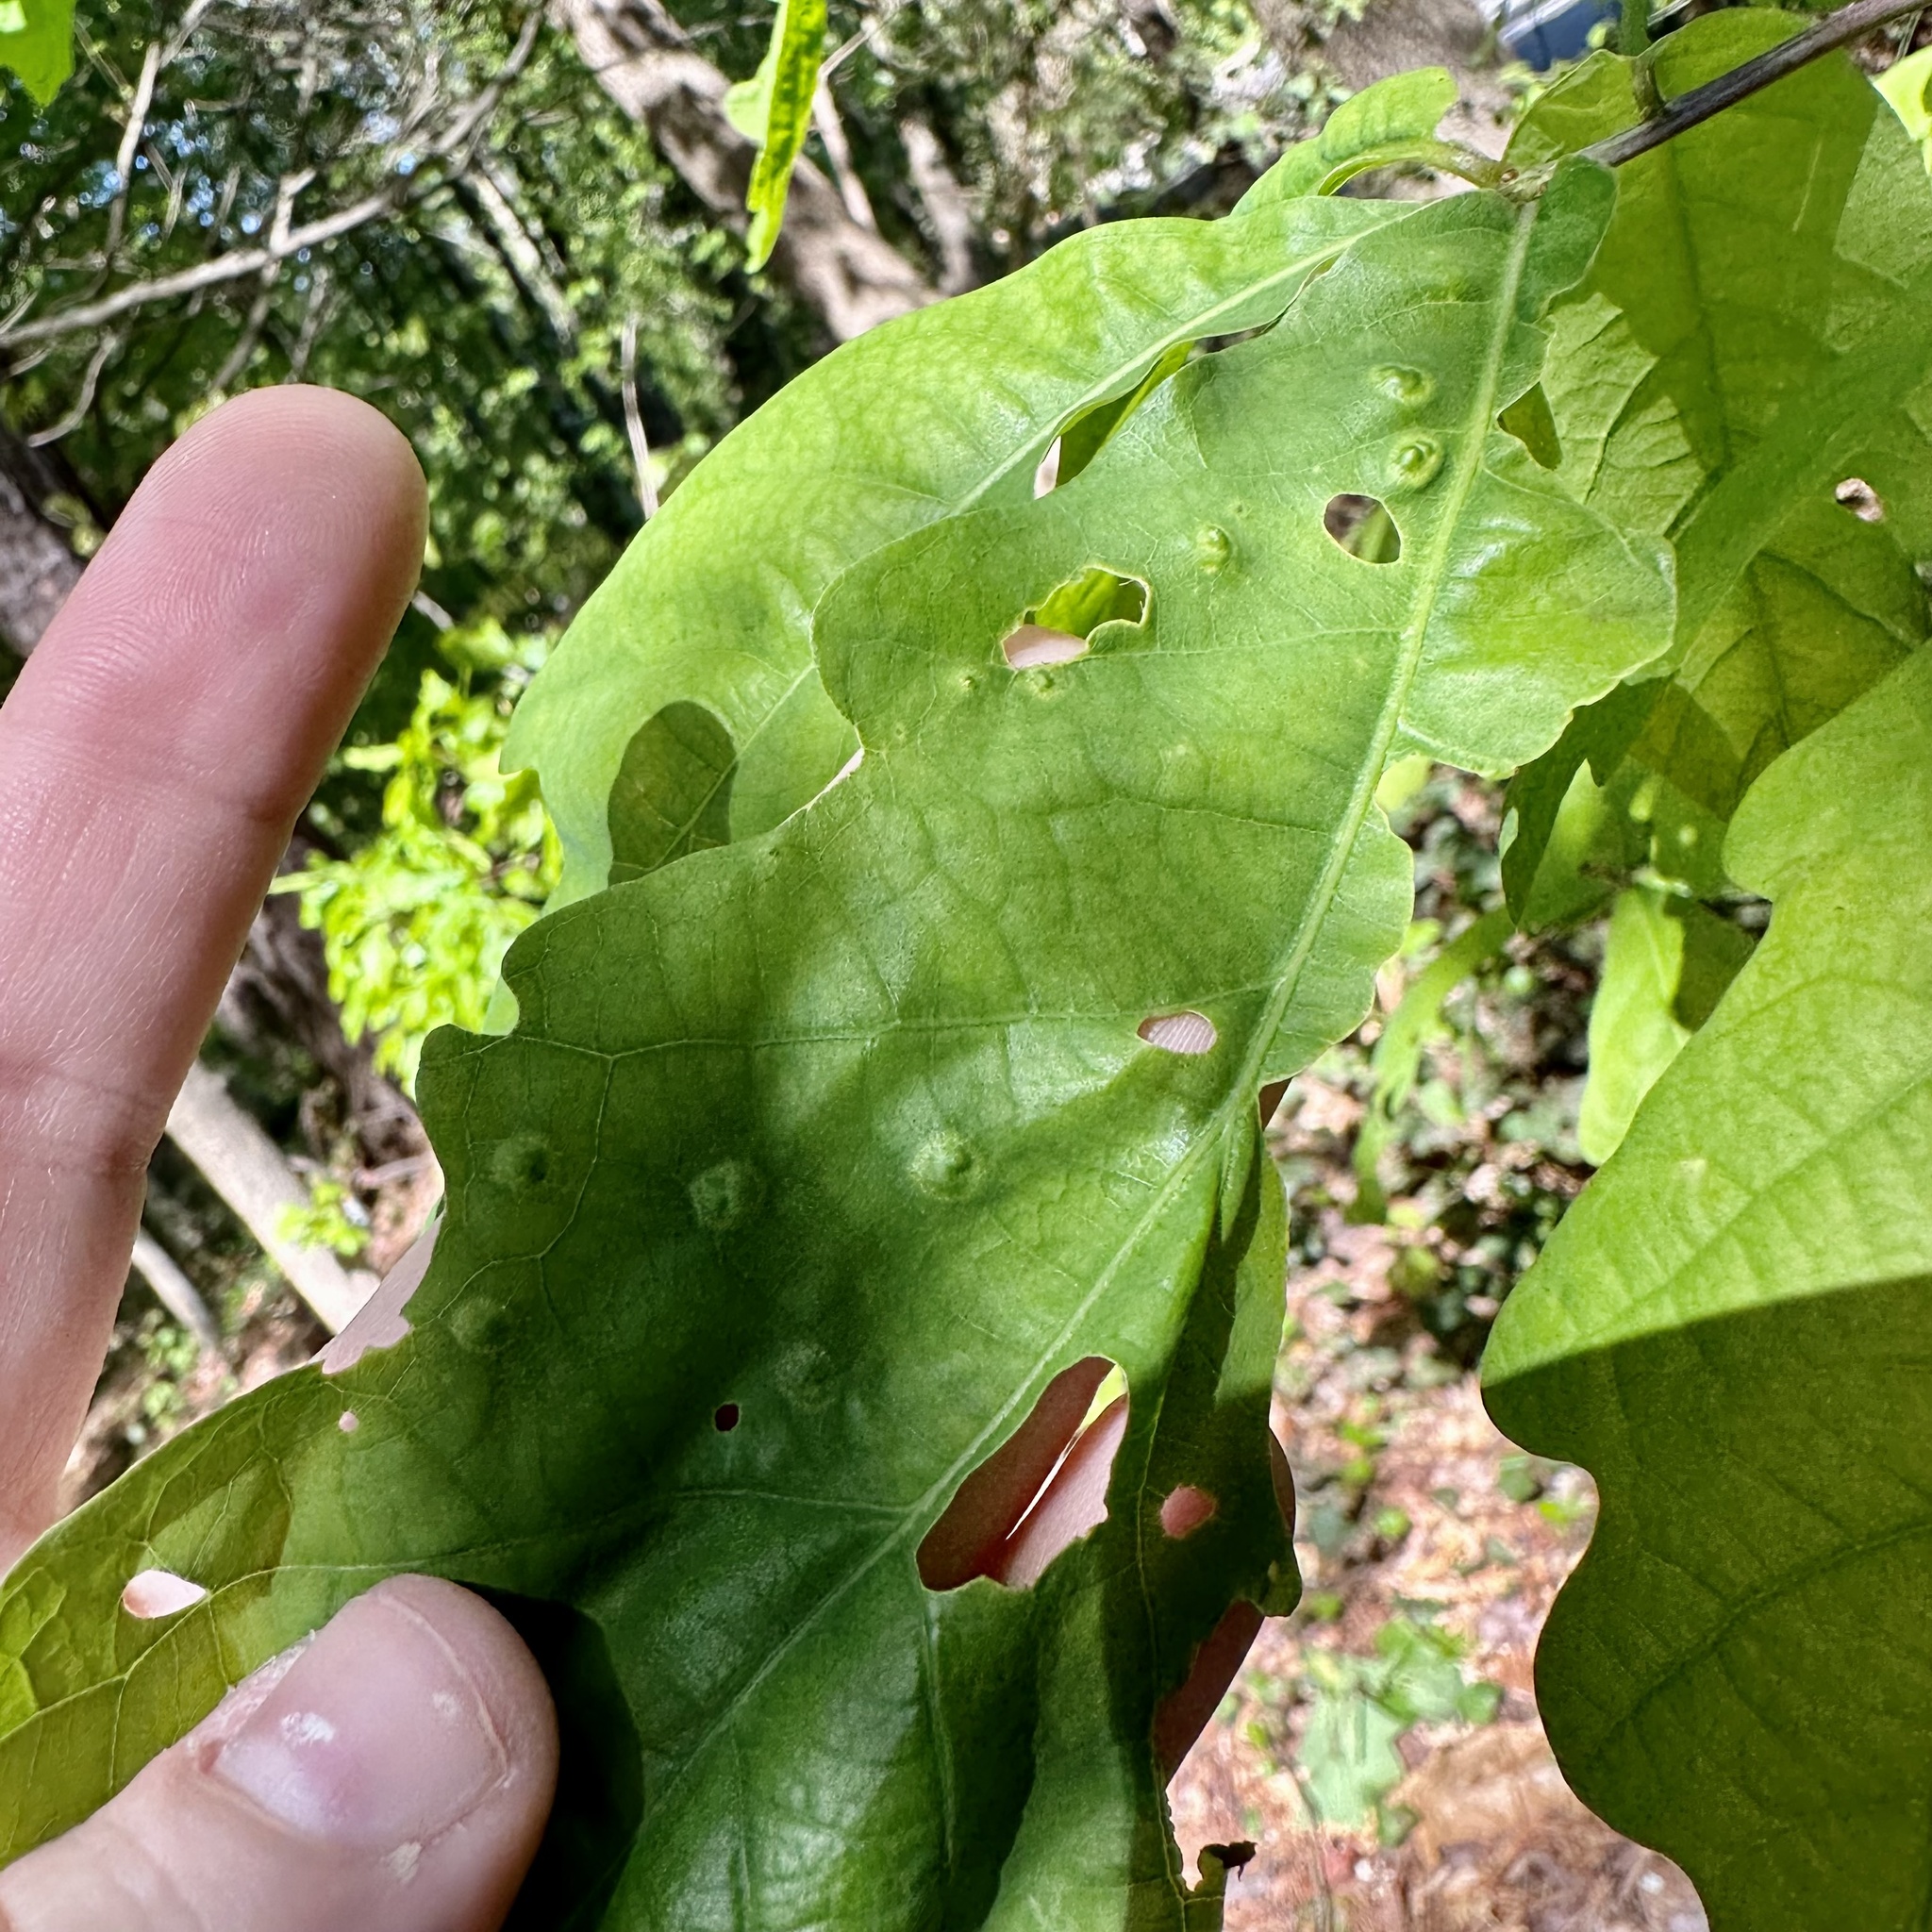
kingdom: Animalia
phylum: Arthropoda
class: Insecta
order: Hymenoptera
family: Cynipidae
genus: Callirhytis
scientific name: Callirhytis
